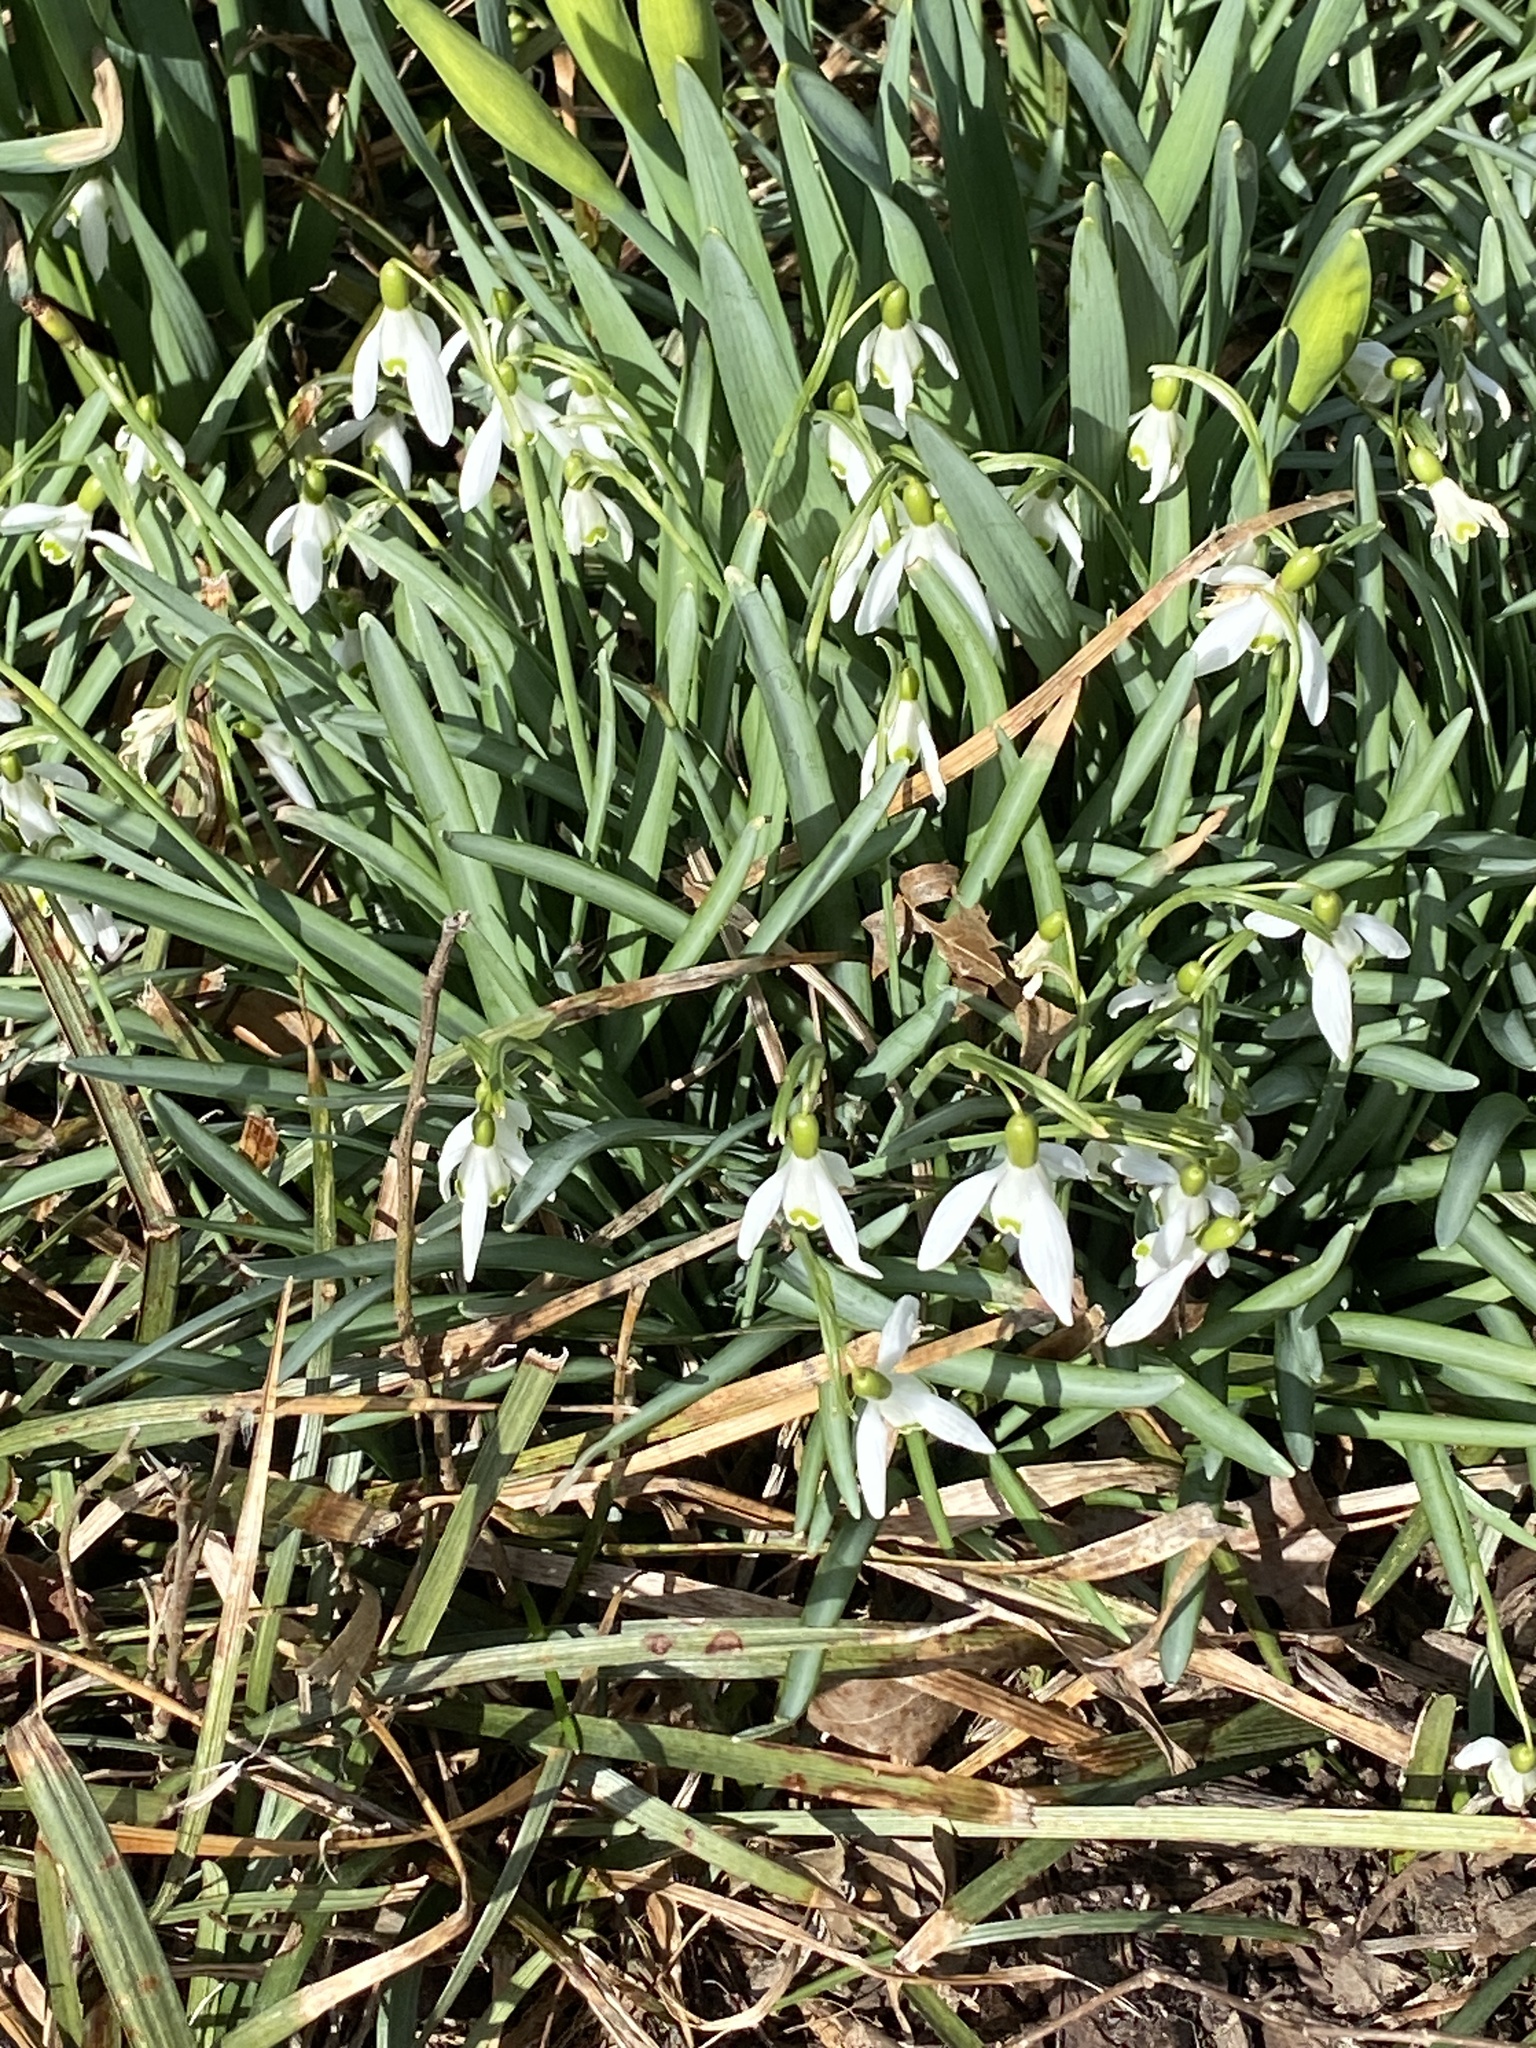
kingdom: Plantae
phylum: Tracheophyta
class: Liliopsida
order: Asparagales
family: Amaryllidaceae
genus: Galanthus
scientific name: Galanthus nivalis
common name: Snowdrop
